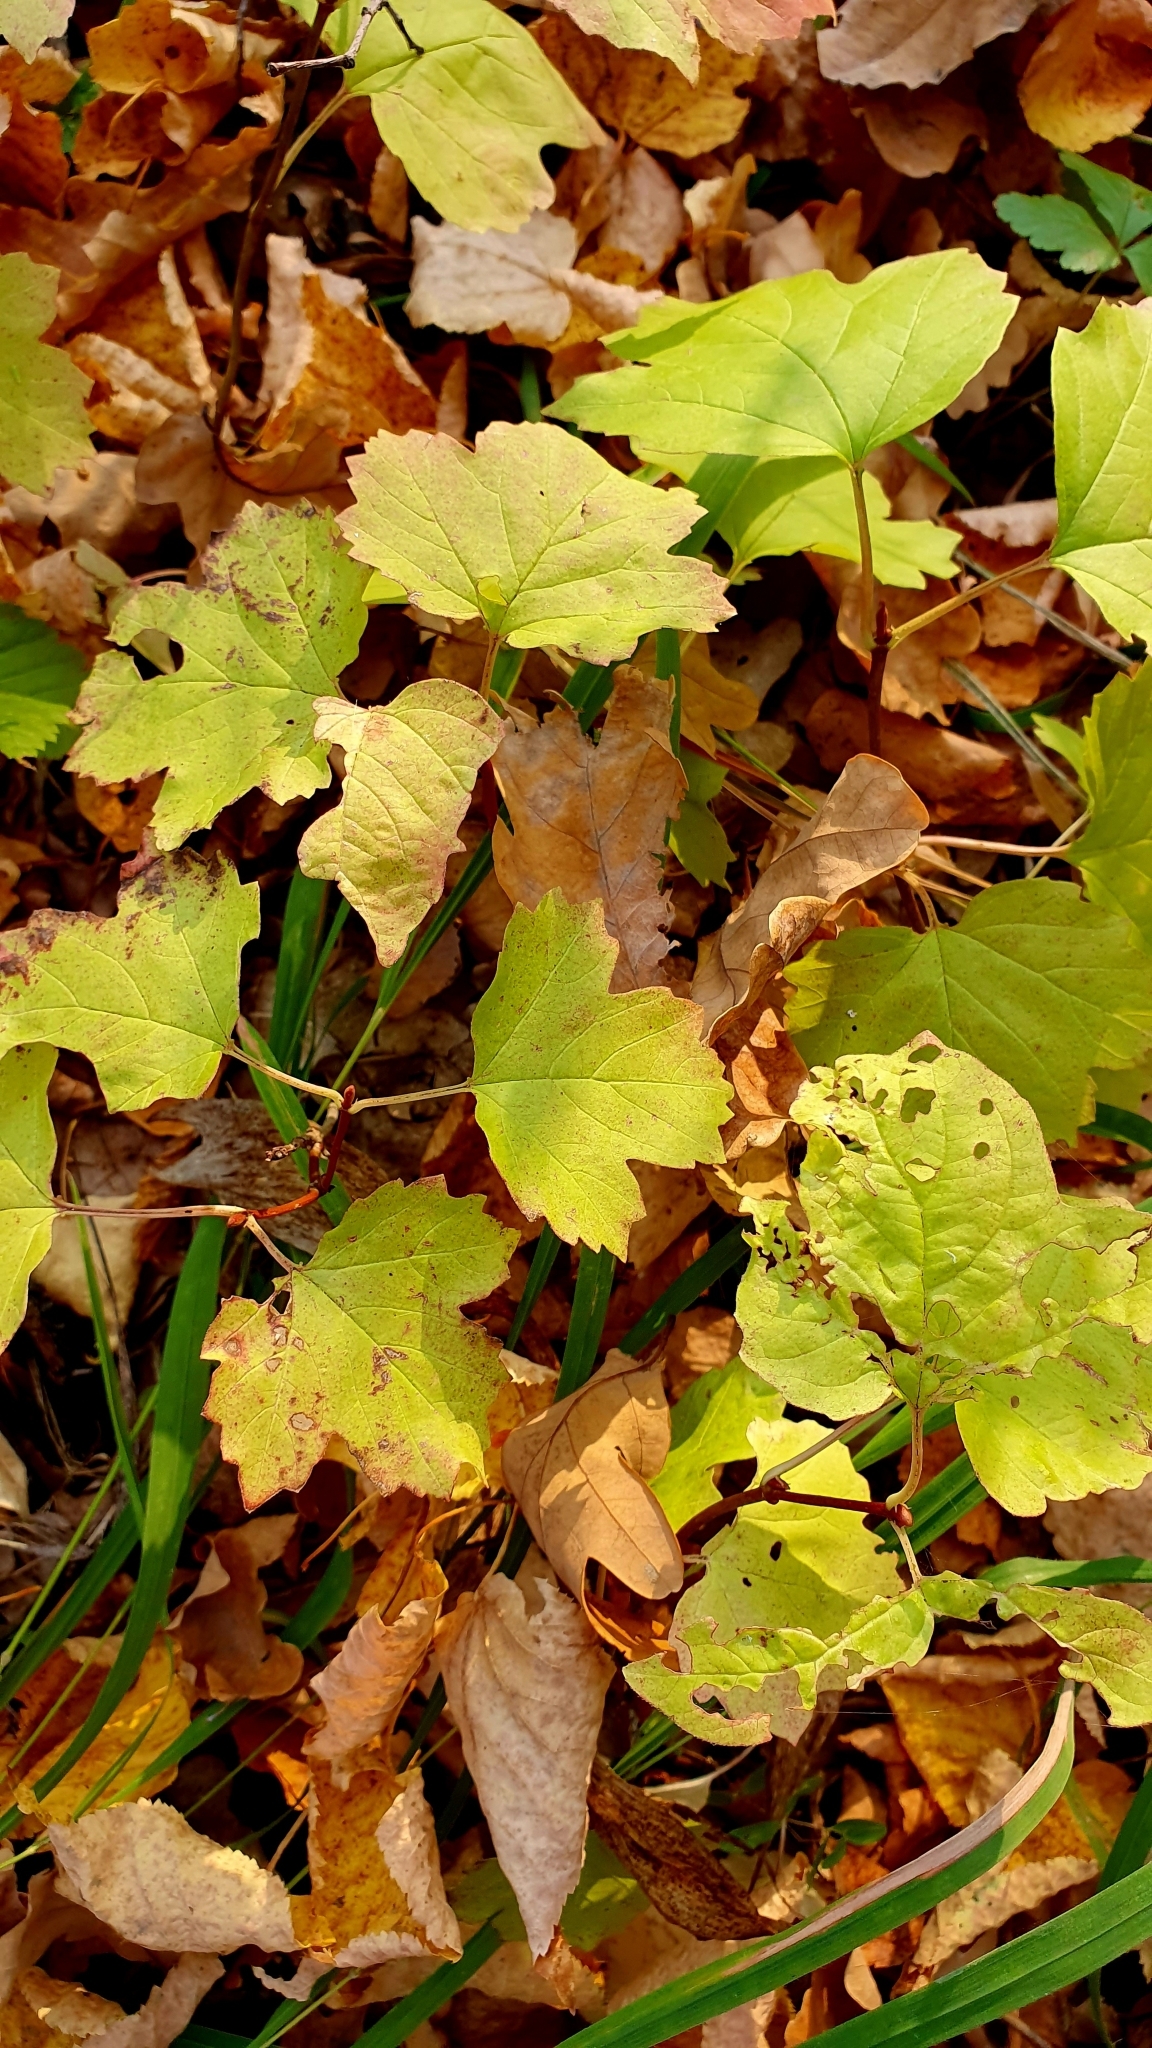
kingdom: Plantae
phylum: Tracheophyta
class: Magnoliopsida
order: Dipsacales
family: Viburnaceae
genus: Viburnum
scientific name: Viburnum opulus
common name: Guelder-rose
